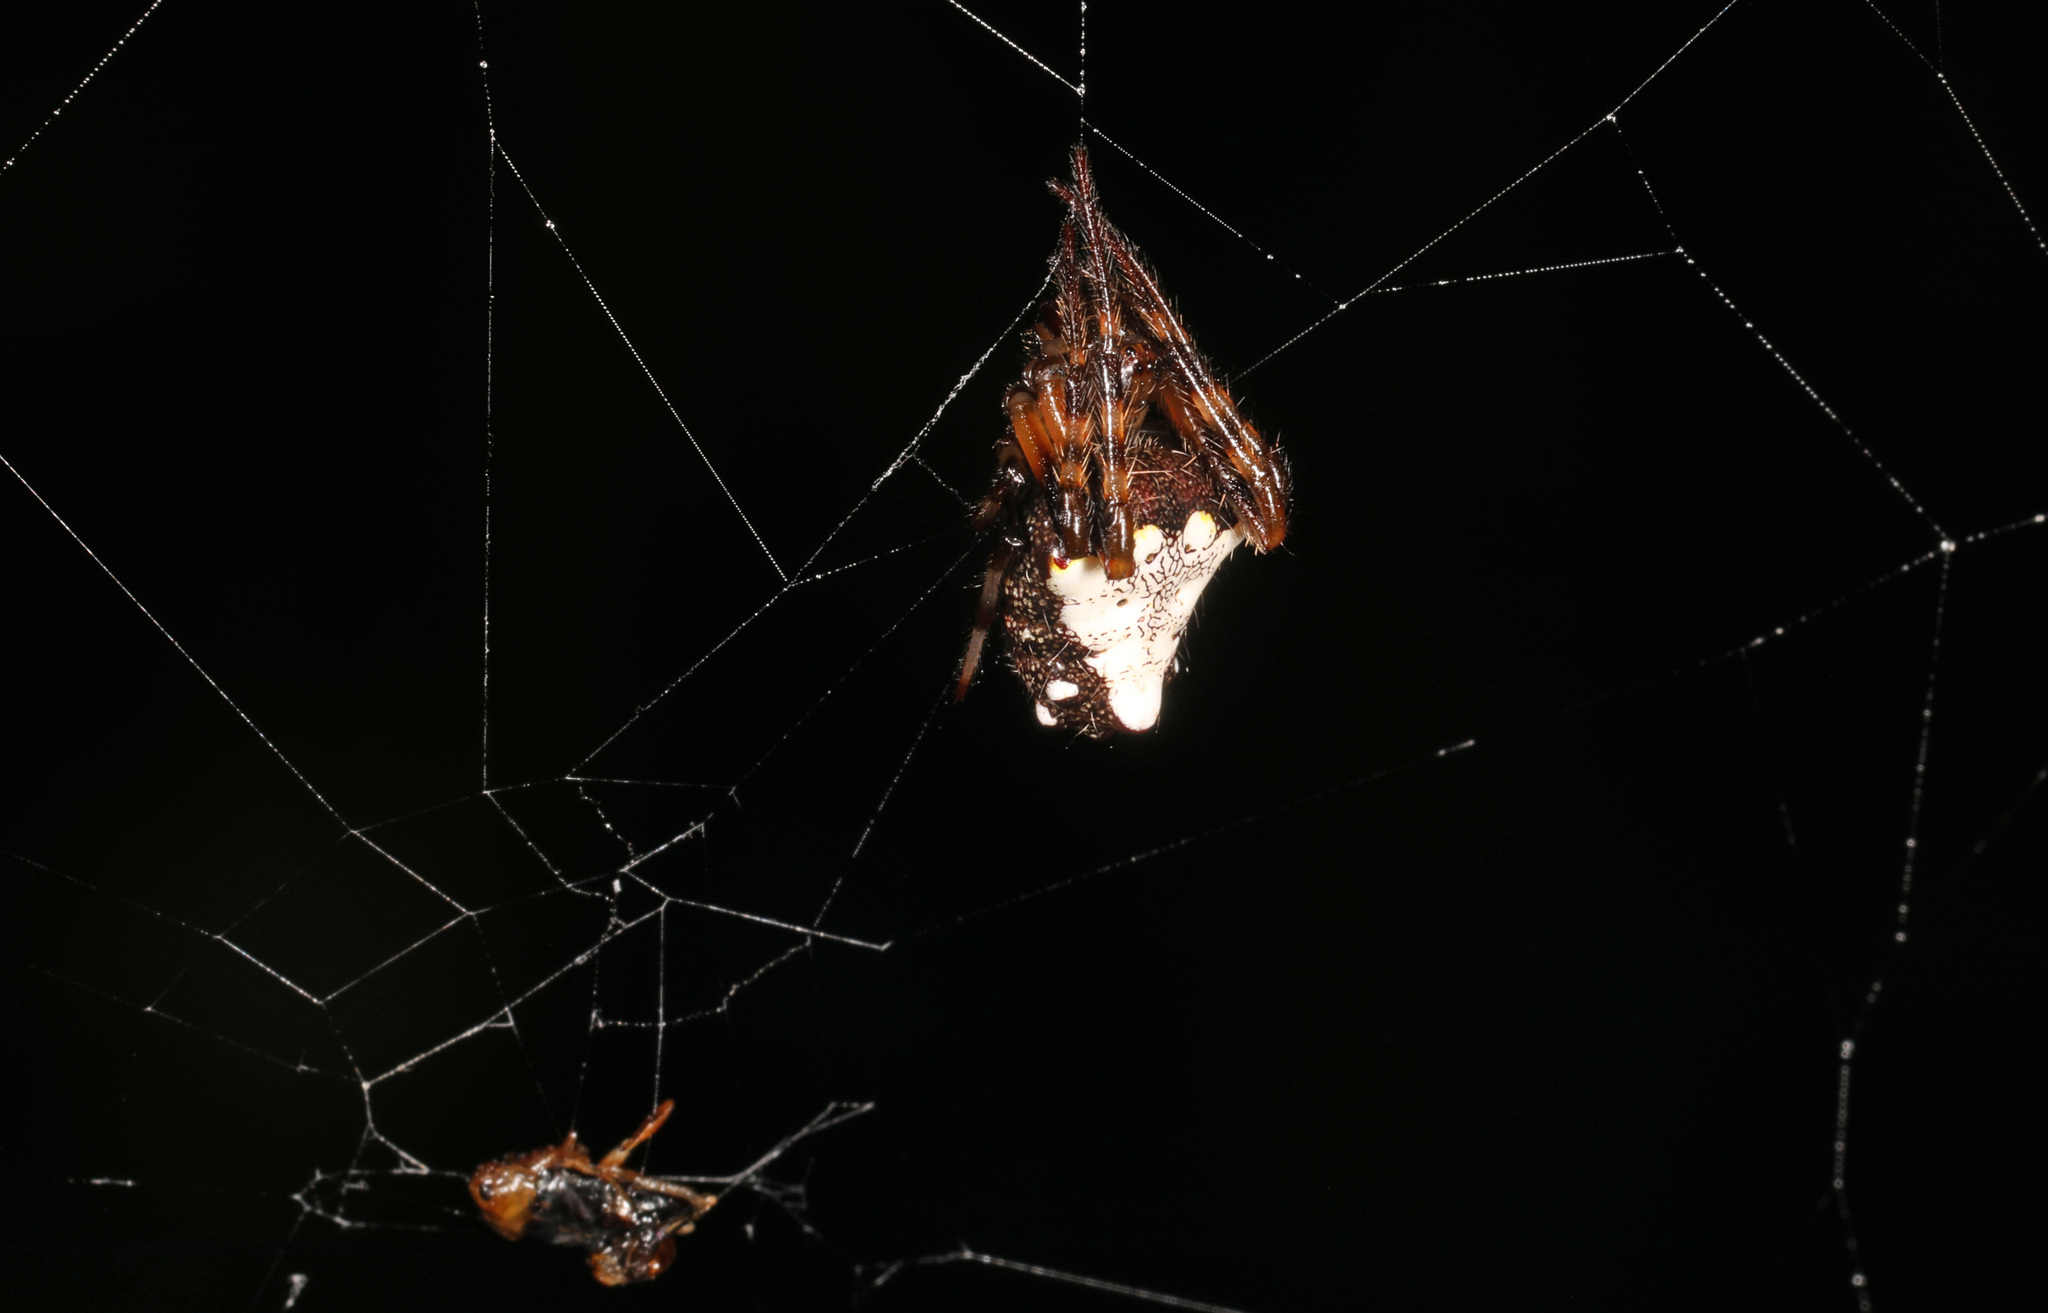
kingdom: Animalia
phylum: Arthropoda
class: Arachnida
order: Araneae
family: Araneidae
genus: Verrucosa
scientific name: Verrucosa arenata
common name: Orb weavers
